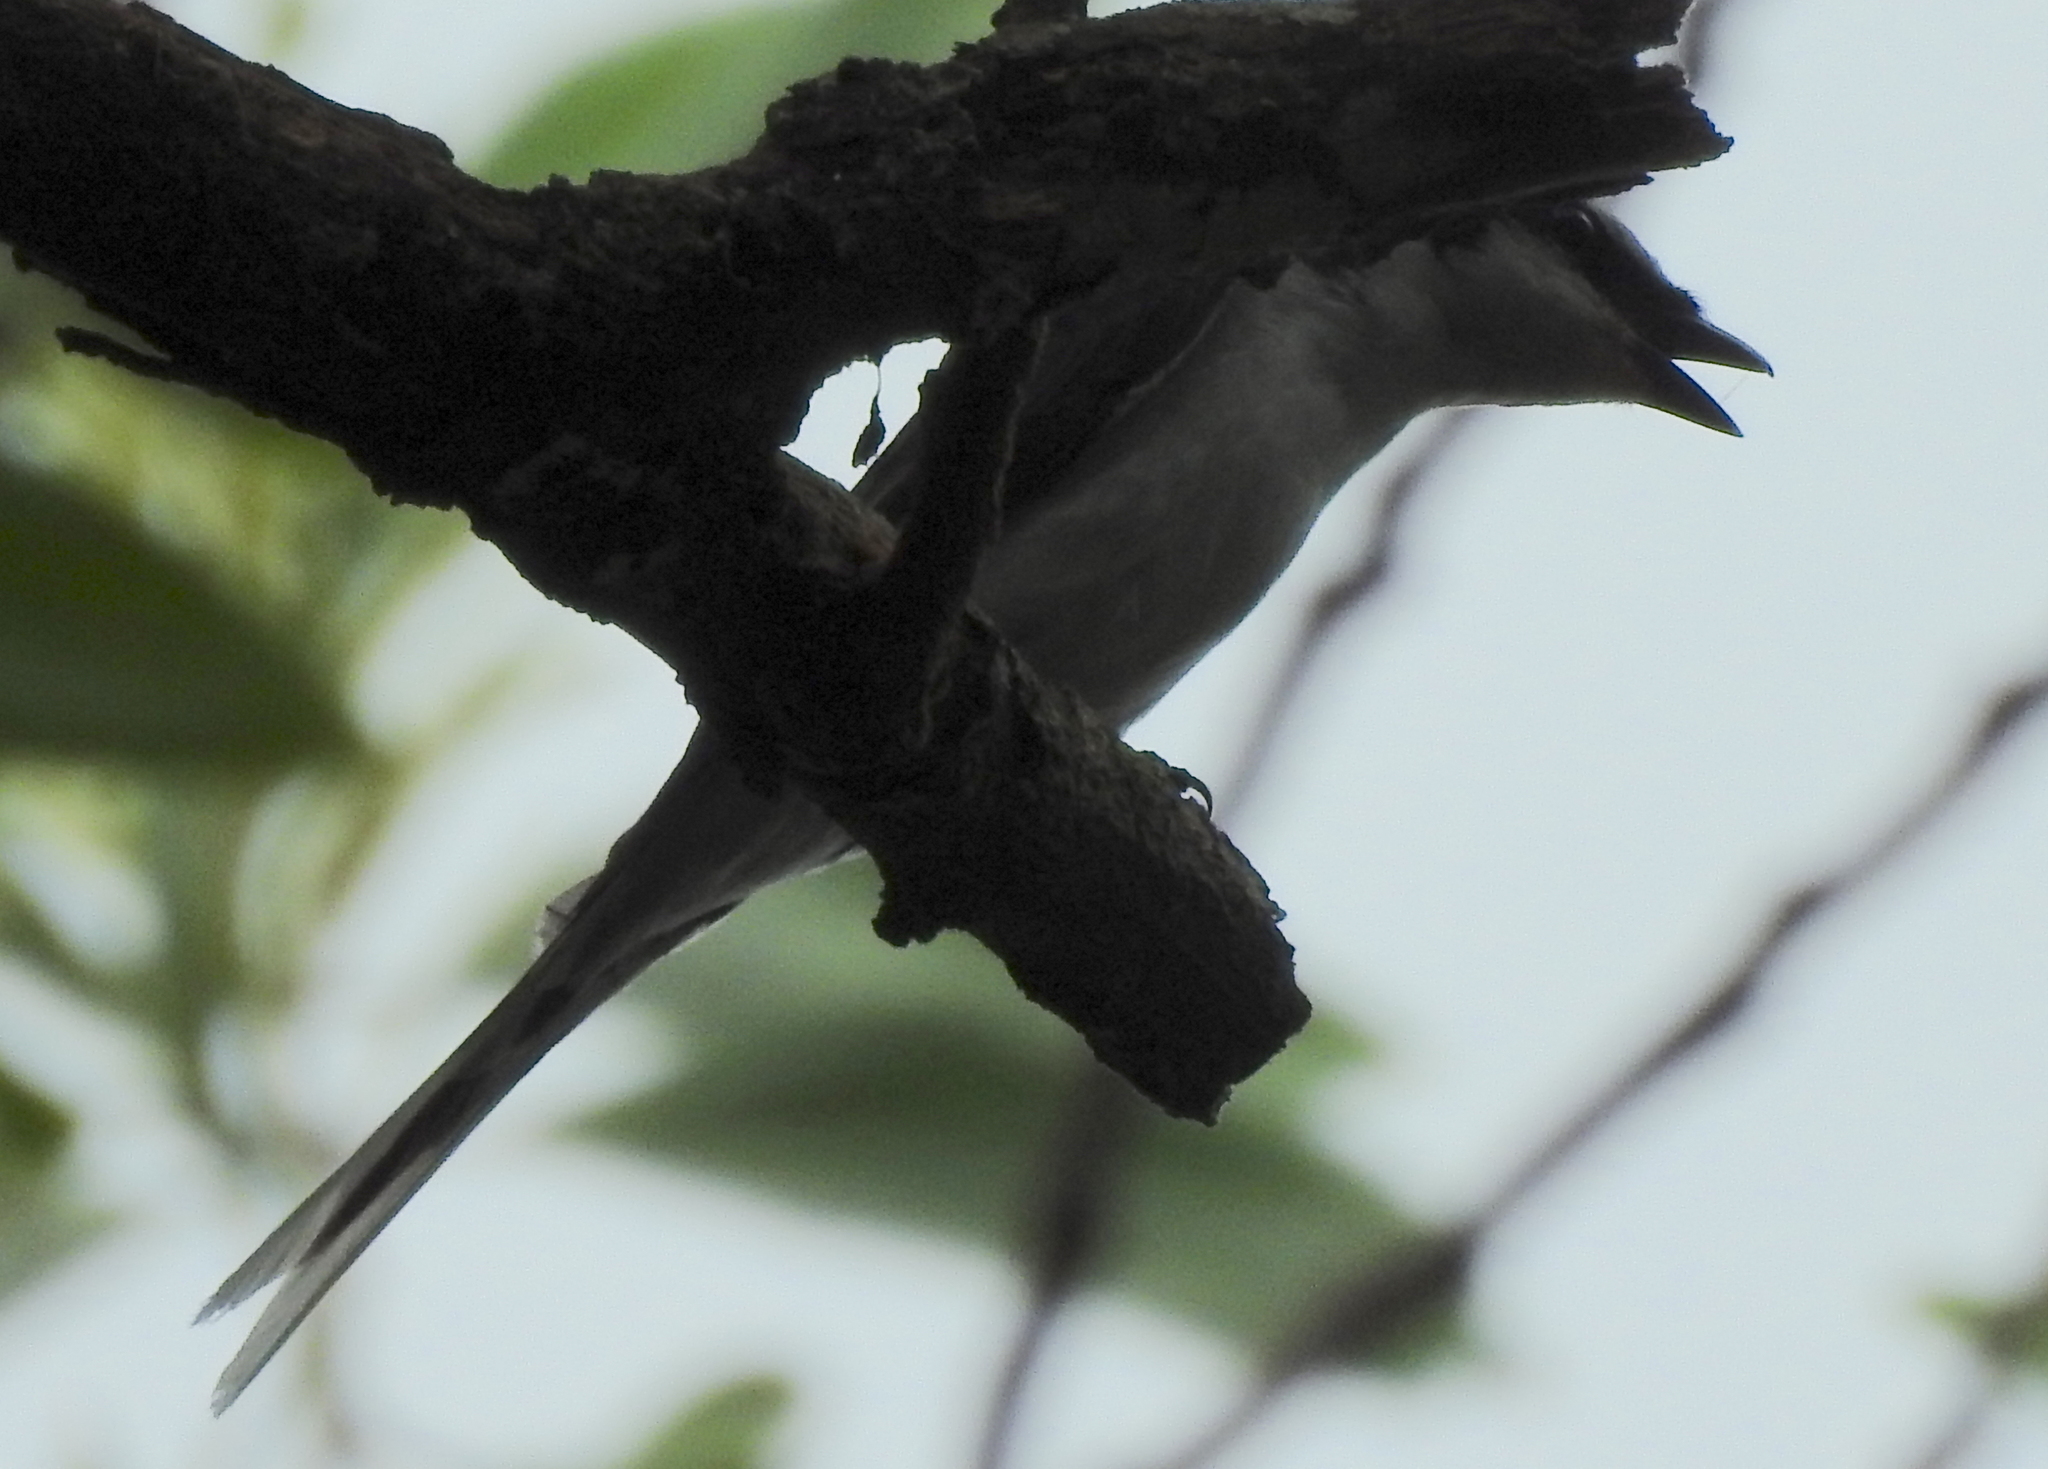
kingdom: Animalia
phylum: Chordata
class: Aves
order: Passeriformes
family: Campephagidae
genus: Pericrocotus
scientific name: Pericrocotus divaricatus
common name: Ashy minivet
